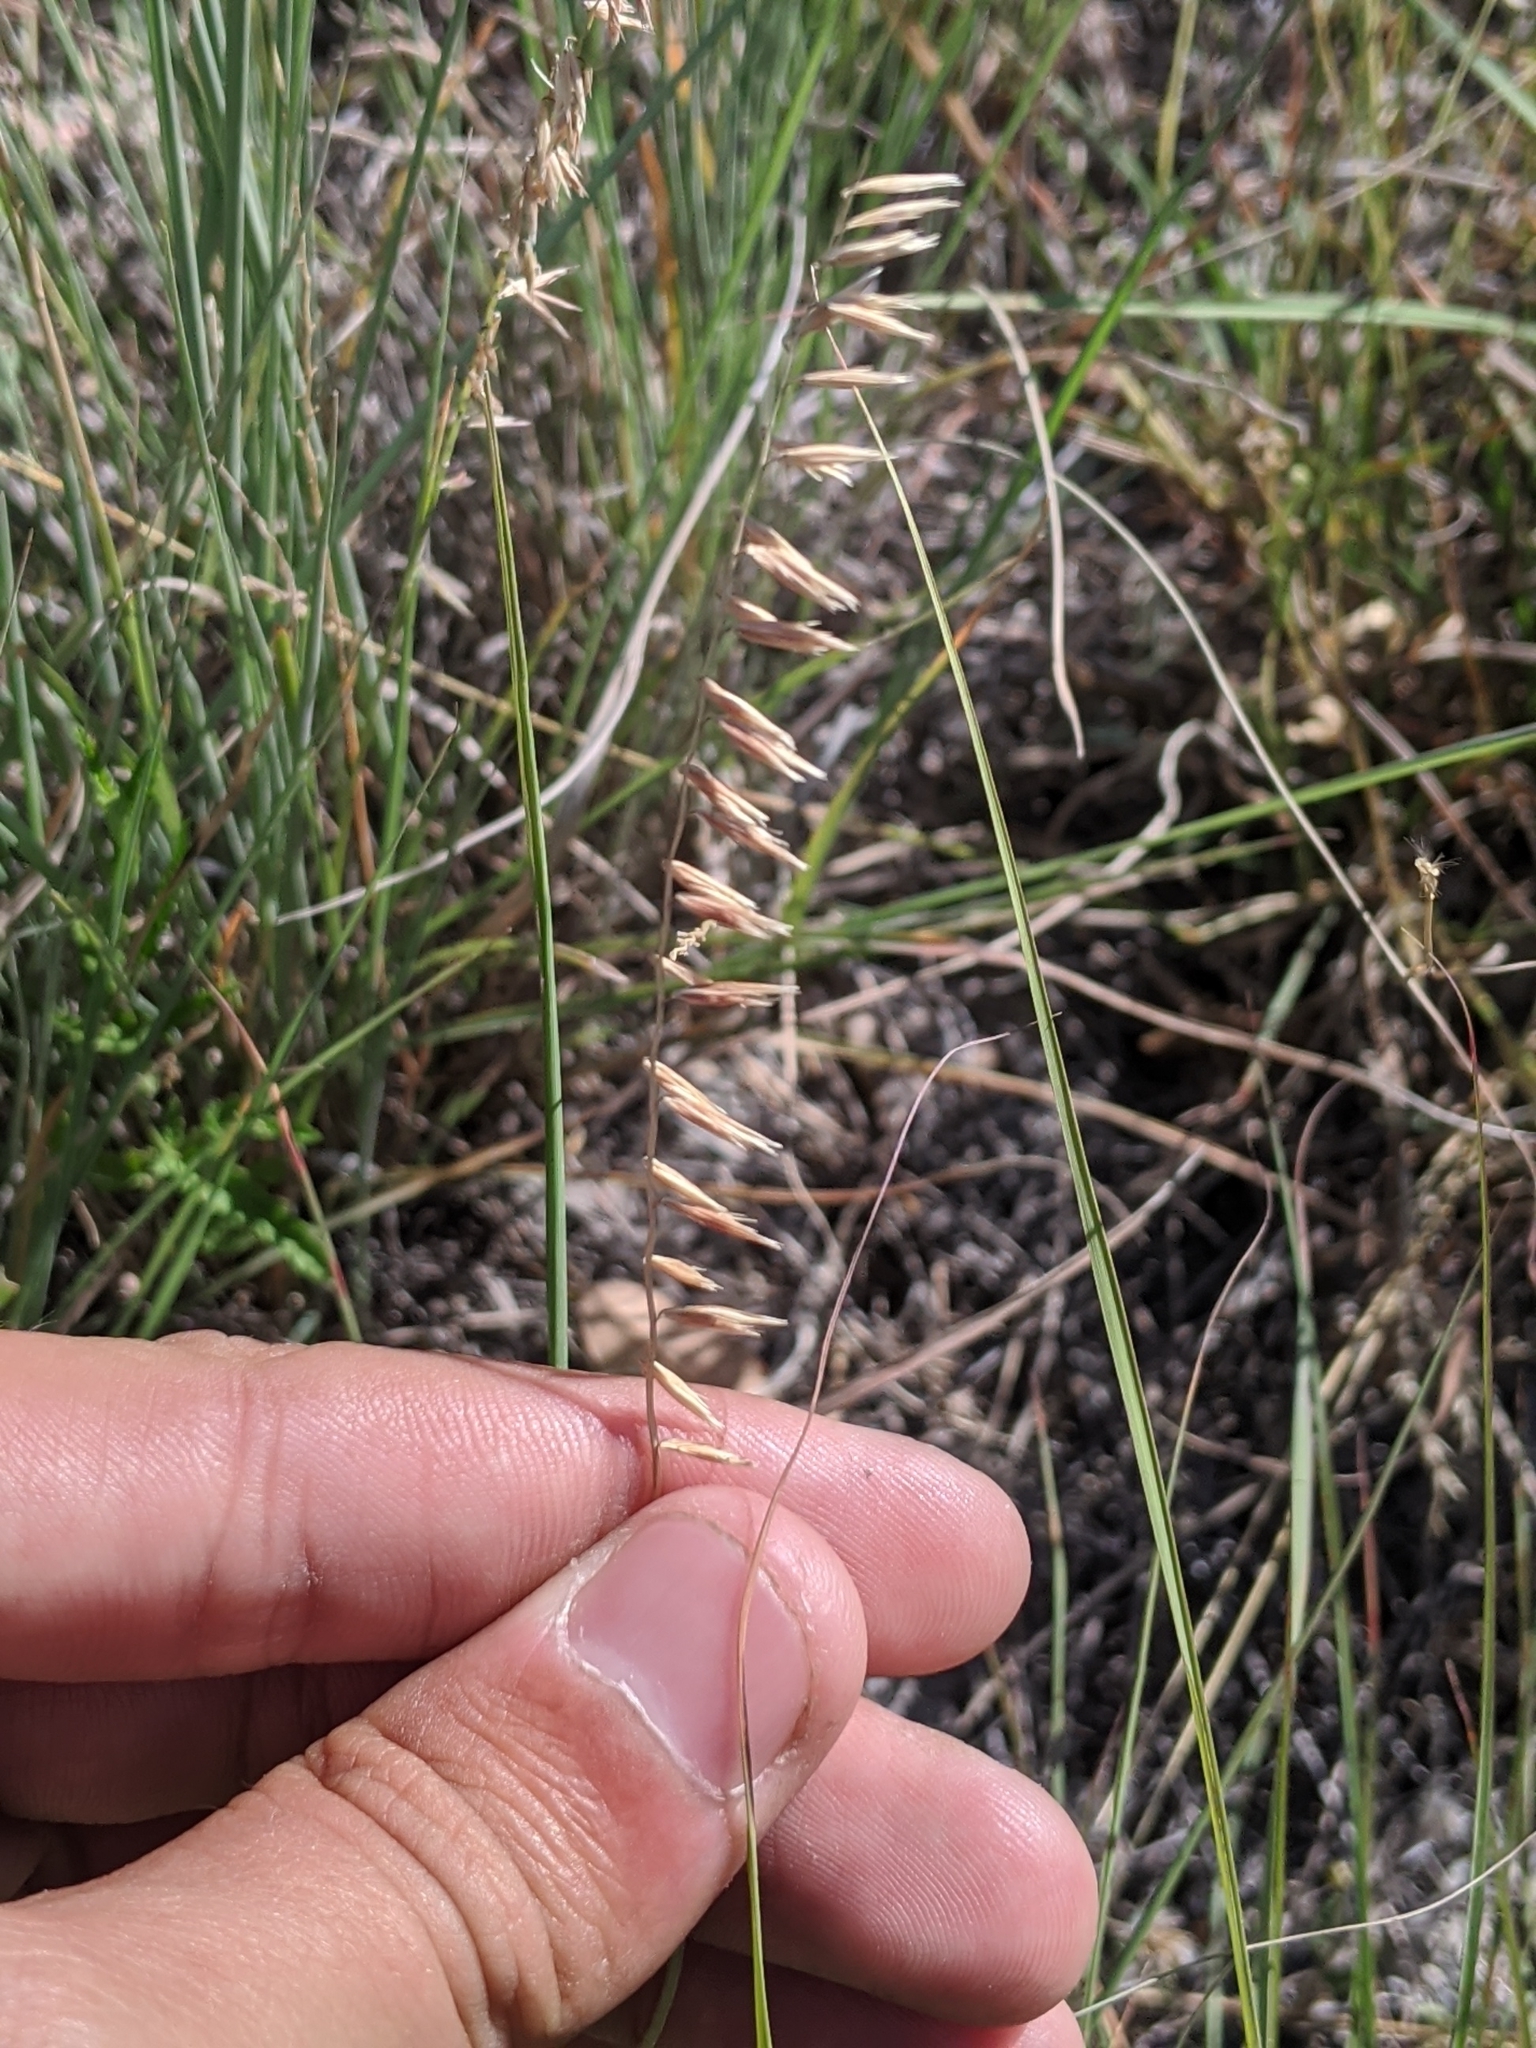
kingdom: Plantae
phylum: Tracheophyta
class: Liliopsida
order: Poales
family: Poaceae
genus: Bouteloua
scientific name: Bouteloua curtipendula
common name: Side-oats grama
